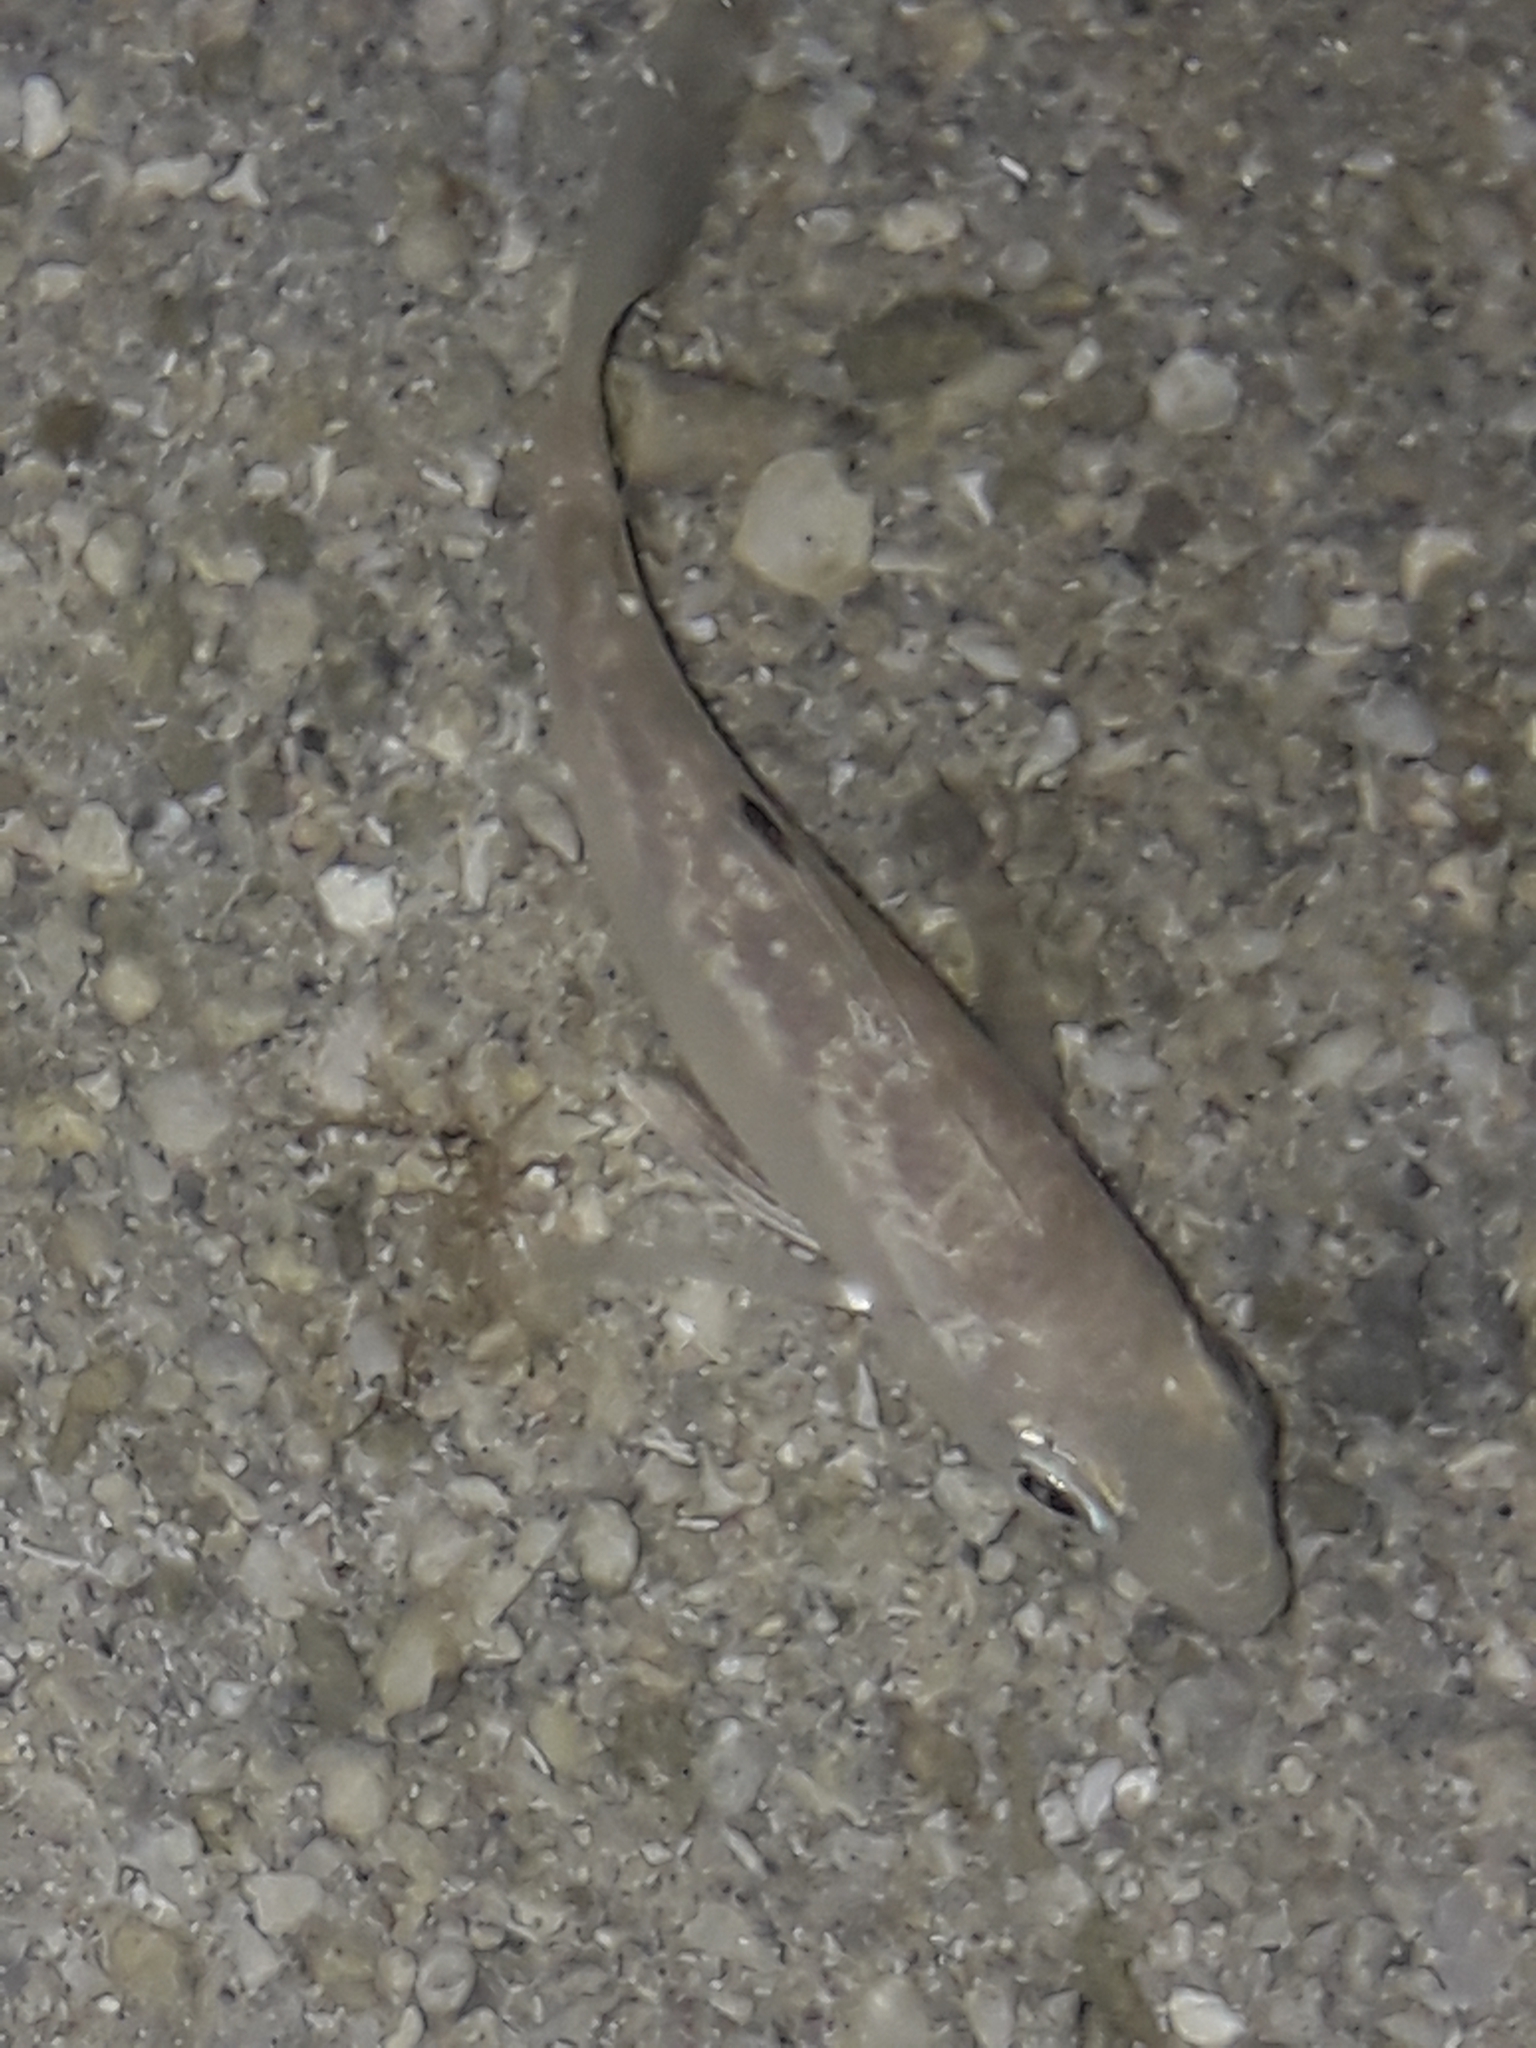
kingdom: Animalia
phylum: Chordata
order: Perciformes
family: Gerreidae
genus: Gerres
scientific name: Gerres oyena
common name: Common silver-biddy
